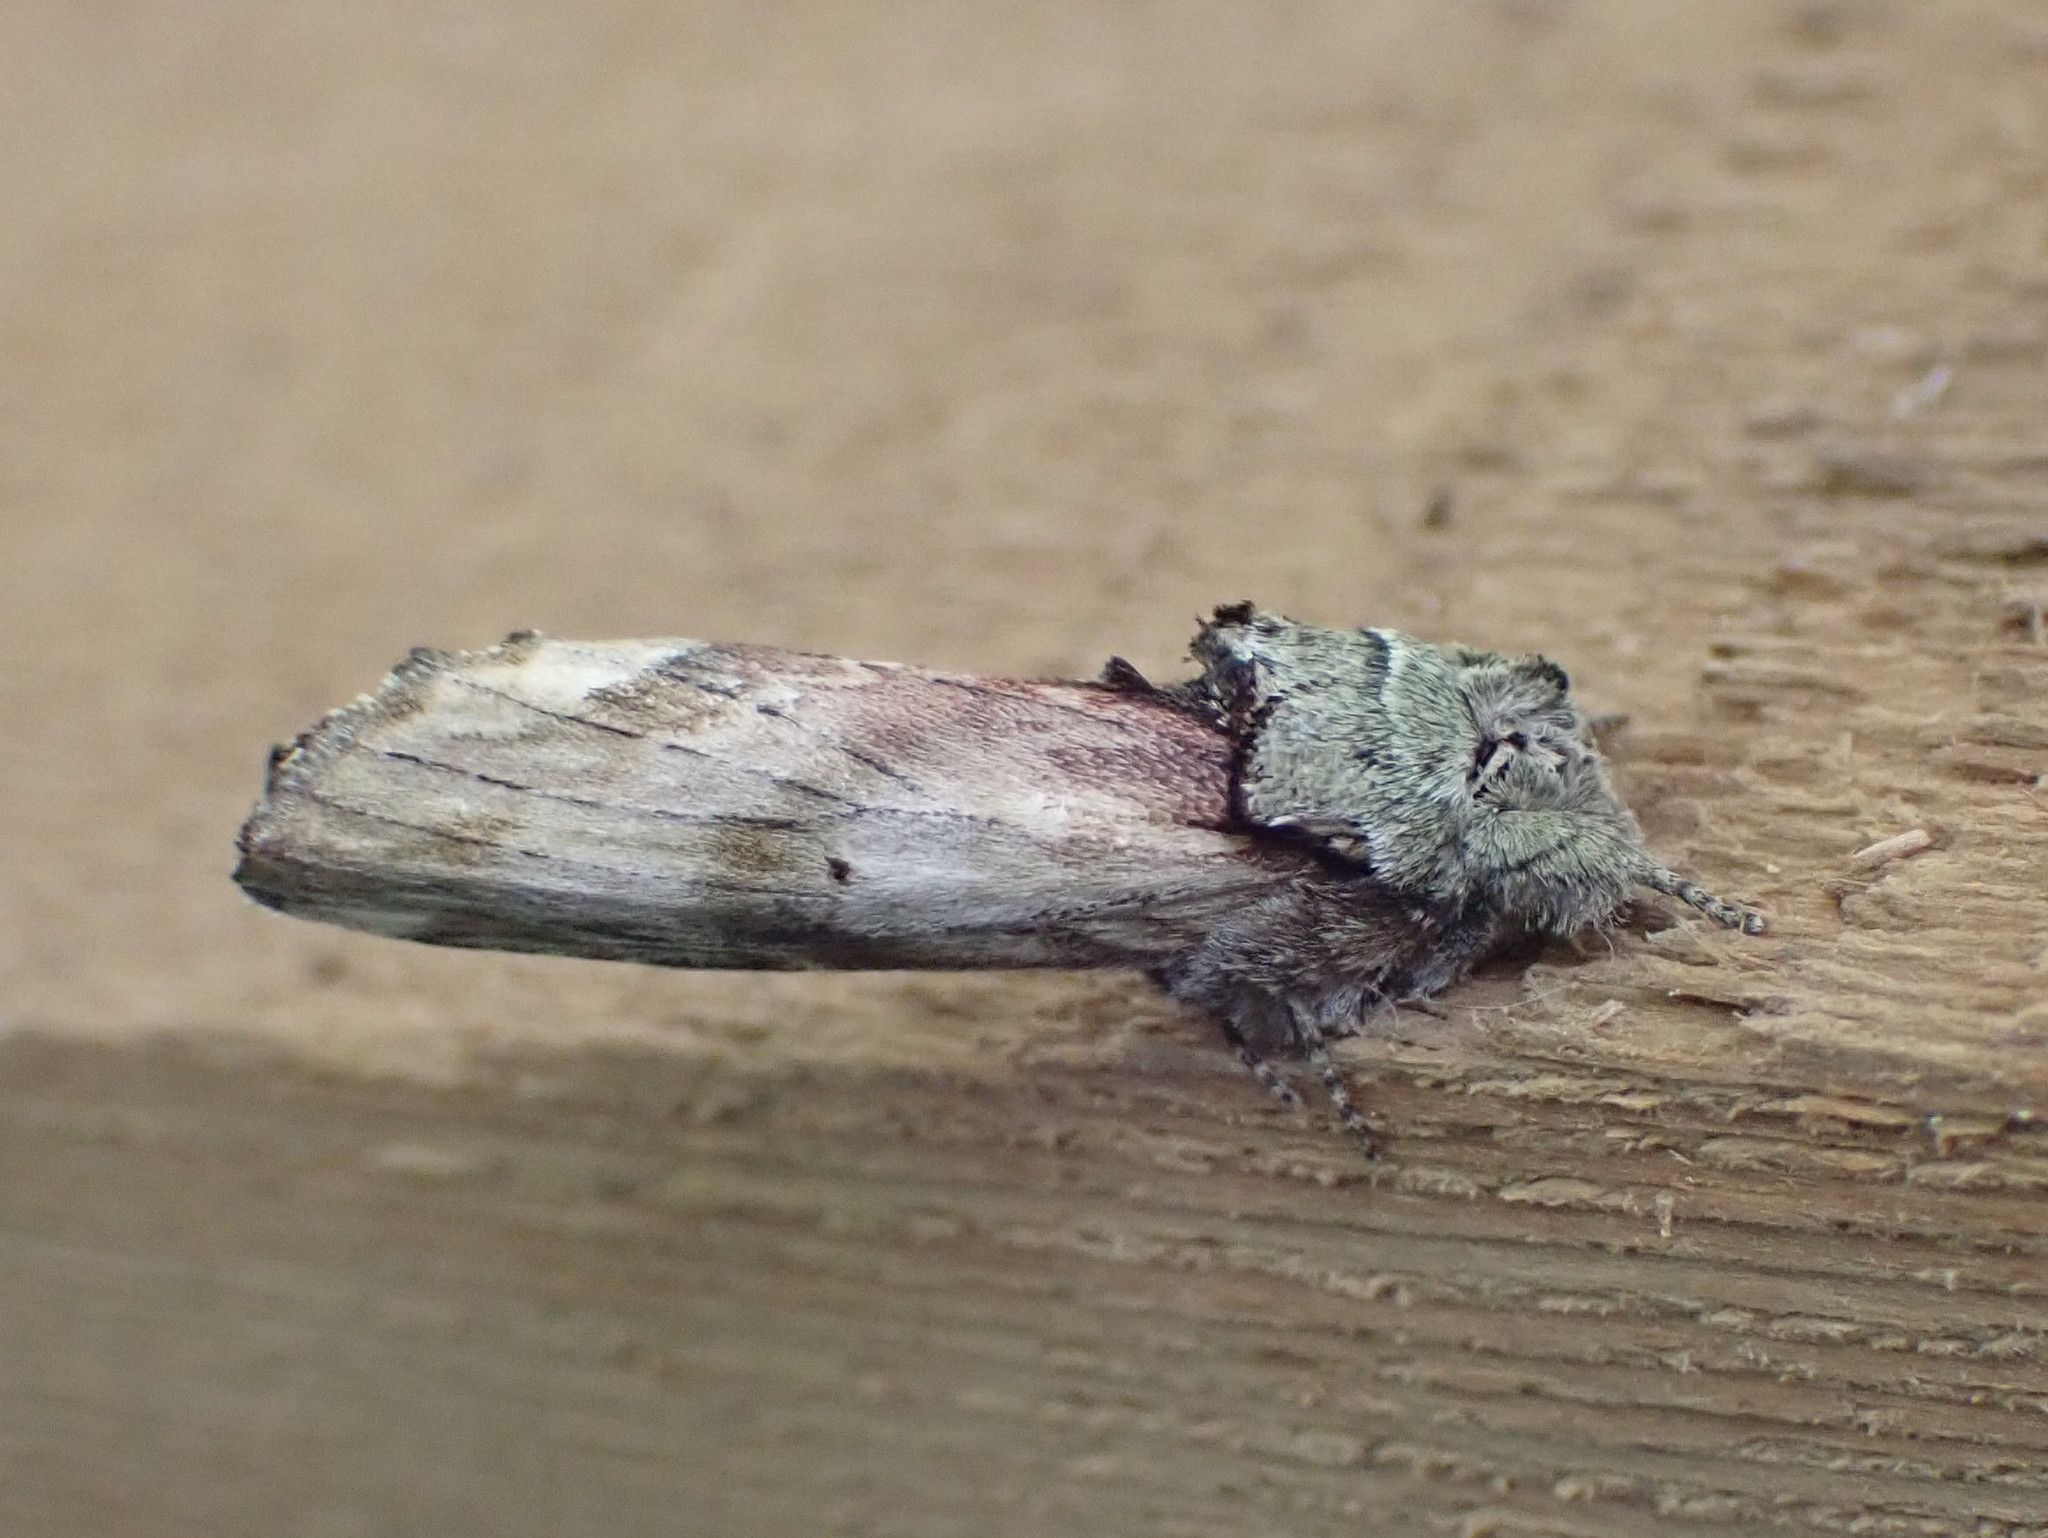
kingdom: Animalia
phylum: Arthropoda
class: Insecta
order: Lepidoptera
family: Notodontidae
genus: Schizura
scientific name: Schizura
